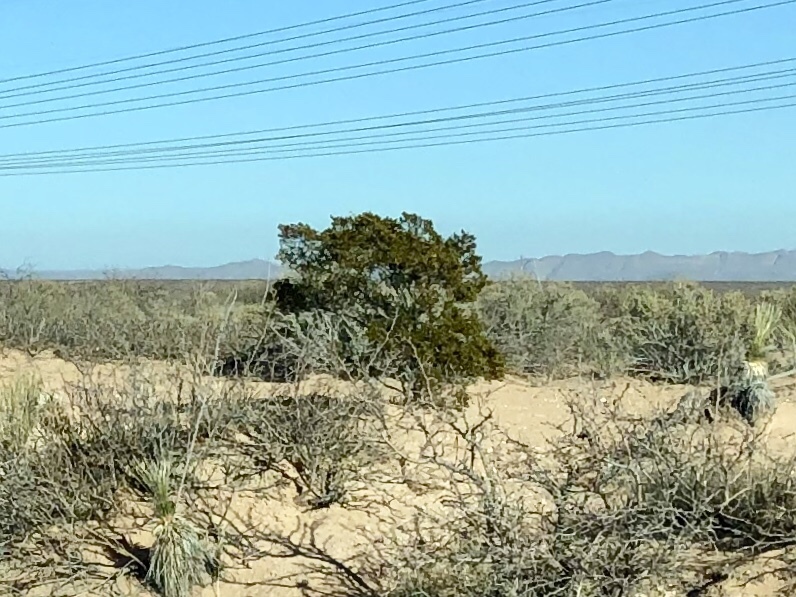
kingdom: Plantae
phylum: Tracheophyta
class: Magnoliopsida
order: Zygophyllales
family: Zygophyllaceae
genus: Larrea
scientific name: Larrea tridentata
